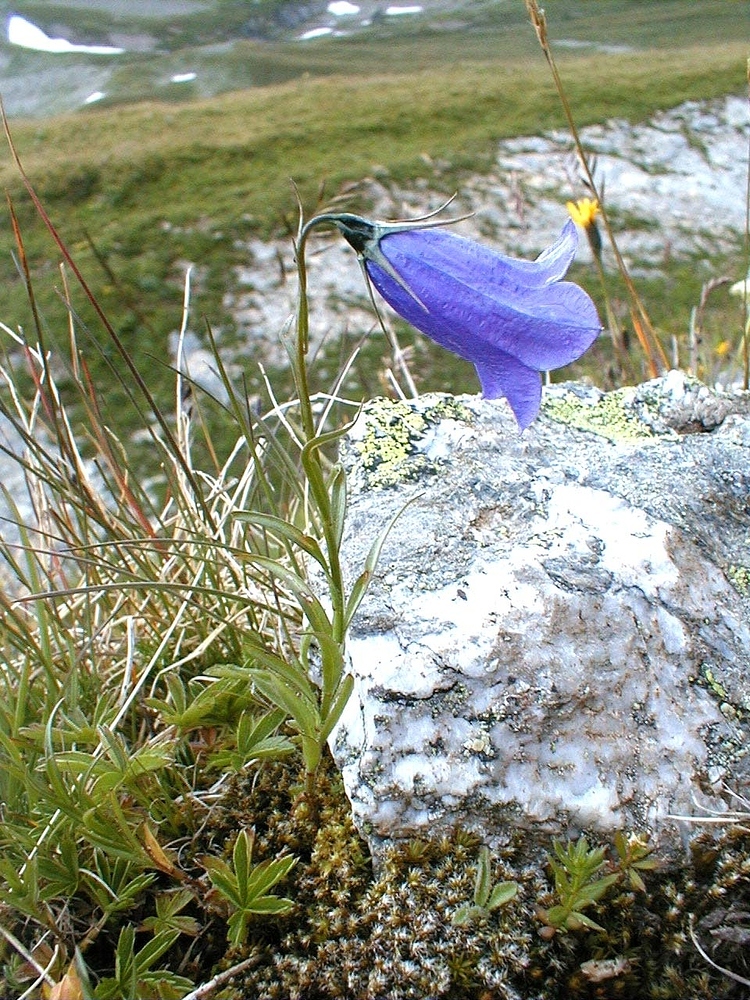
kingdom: Plantae
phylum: Tracheophyta
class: Magnoliopsida
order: Asterales
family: Campanulaceae
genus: Campanula
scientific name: Campanula scheuchzeri
